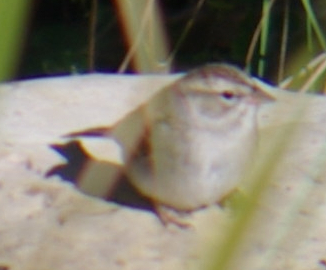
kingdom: Animalia
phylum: Chordata
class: Aves
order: Passeriformes
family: Passerellidae
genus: Spizella
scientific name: Spizella passerina
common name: Chipping sparrow
